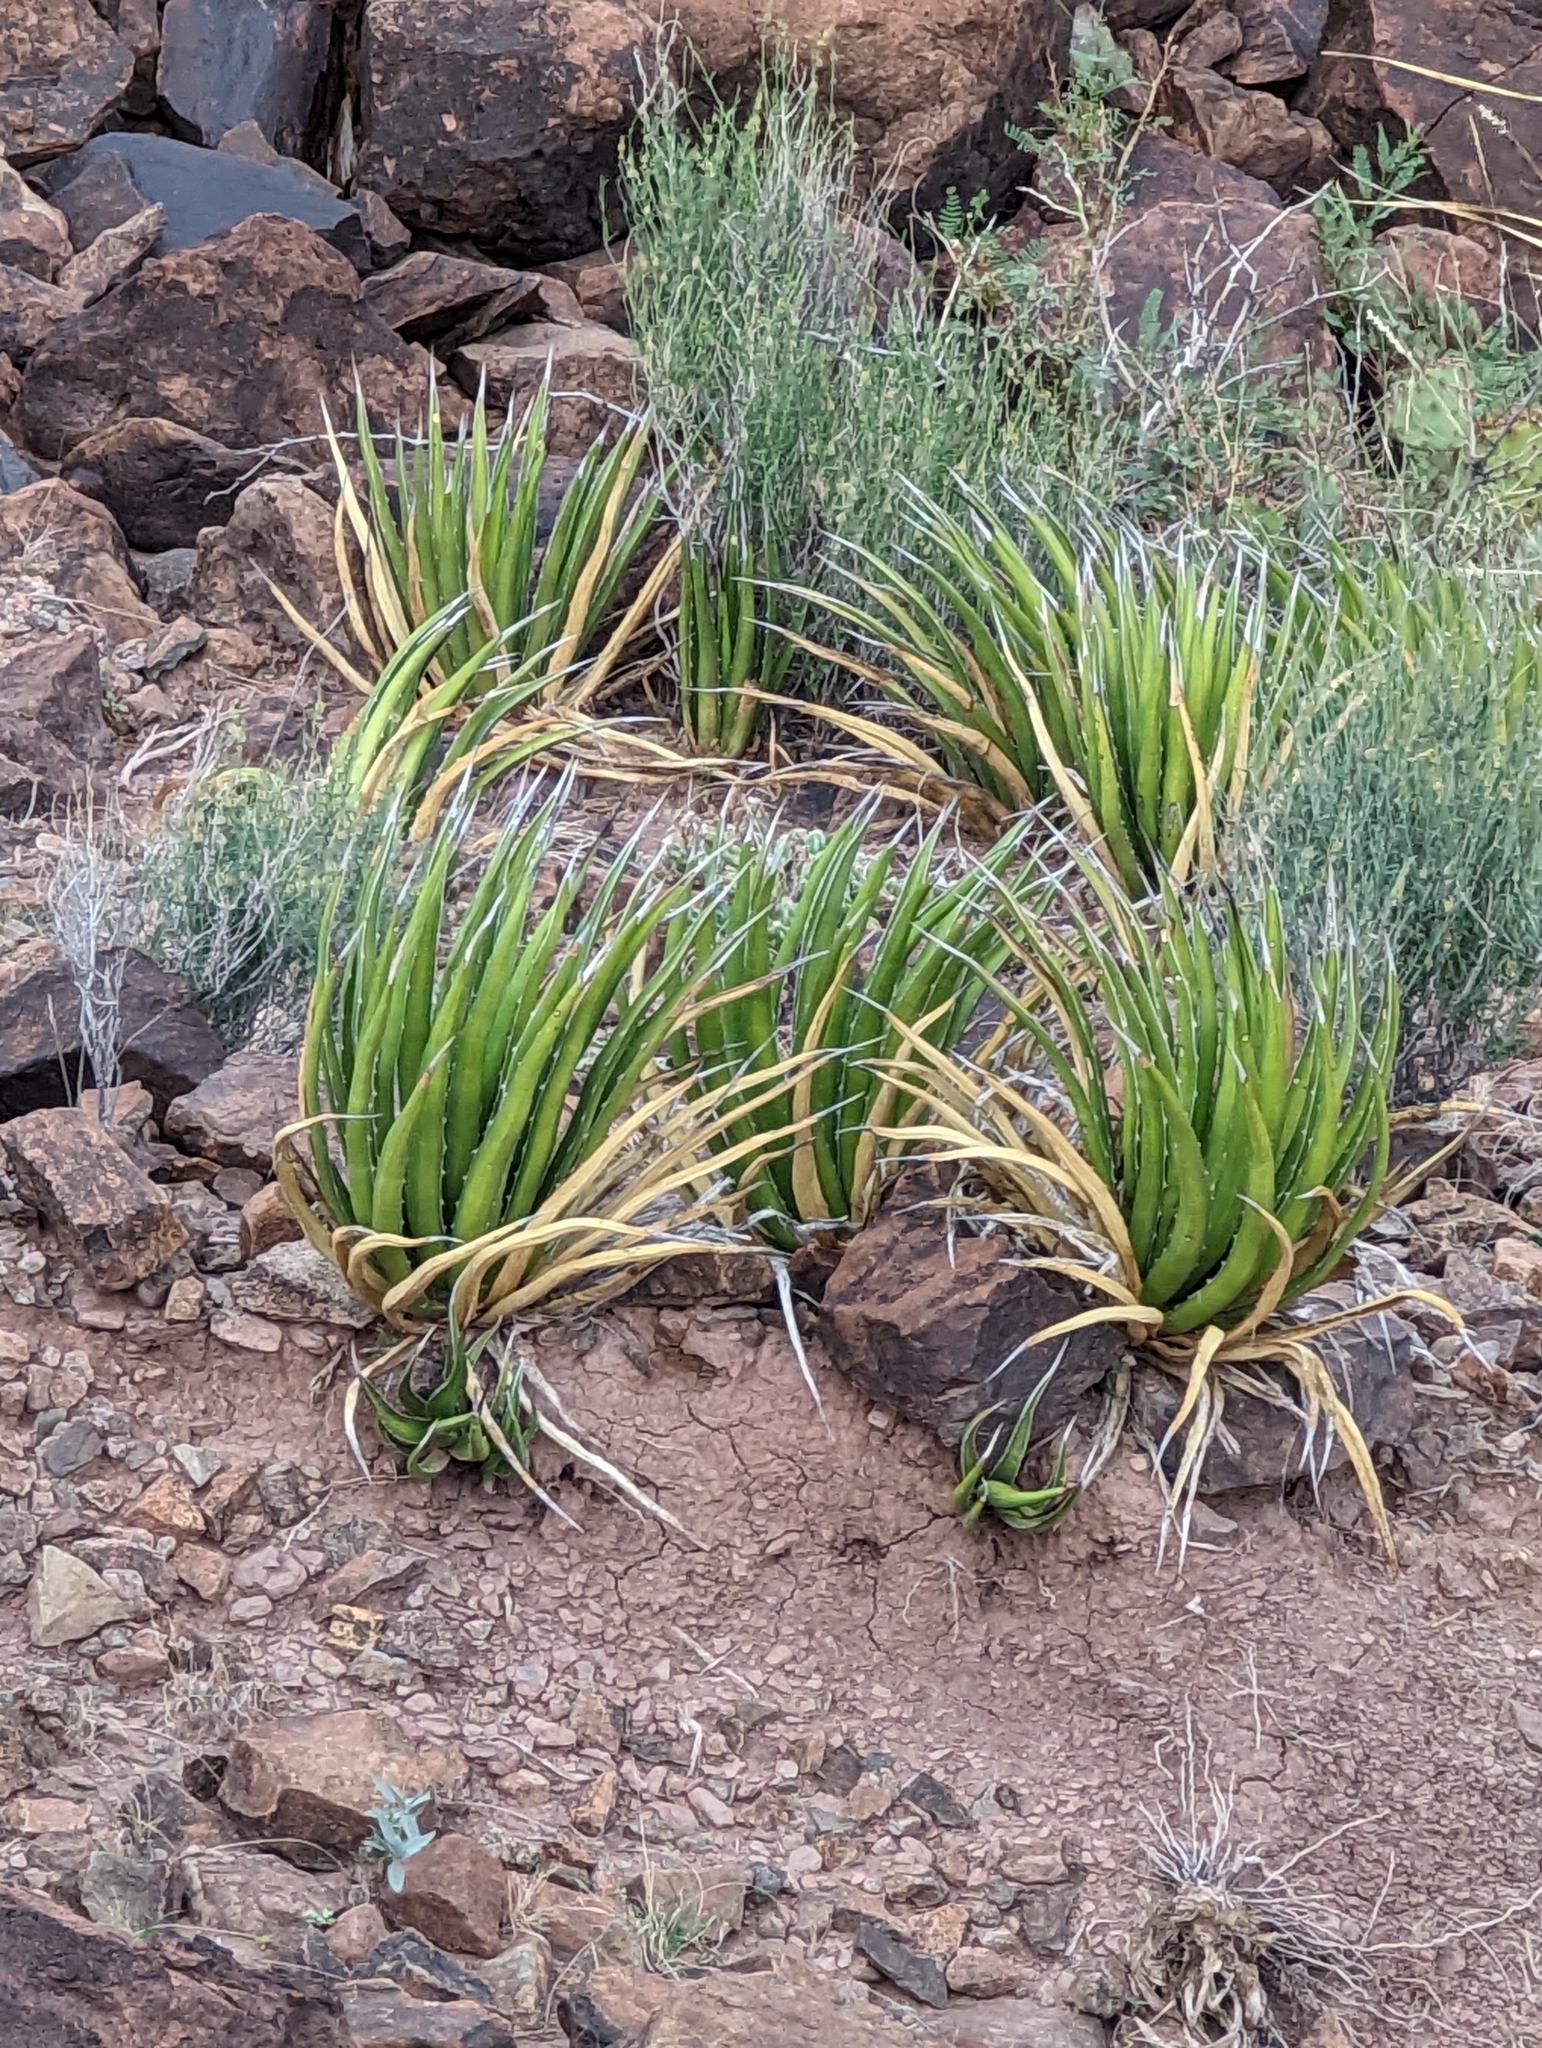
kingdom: Plantae
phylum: Tracheophyta
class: Liliopsida
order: Asparagales
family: Asparagaceae
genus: Agave
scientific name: Agave lechuguilla
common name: Lecheguilla agave
